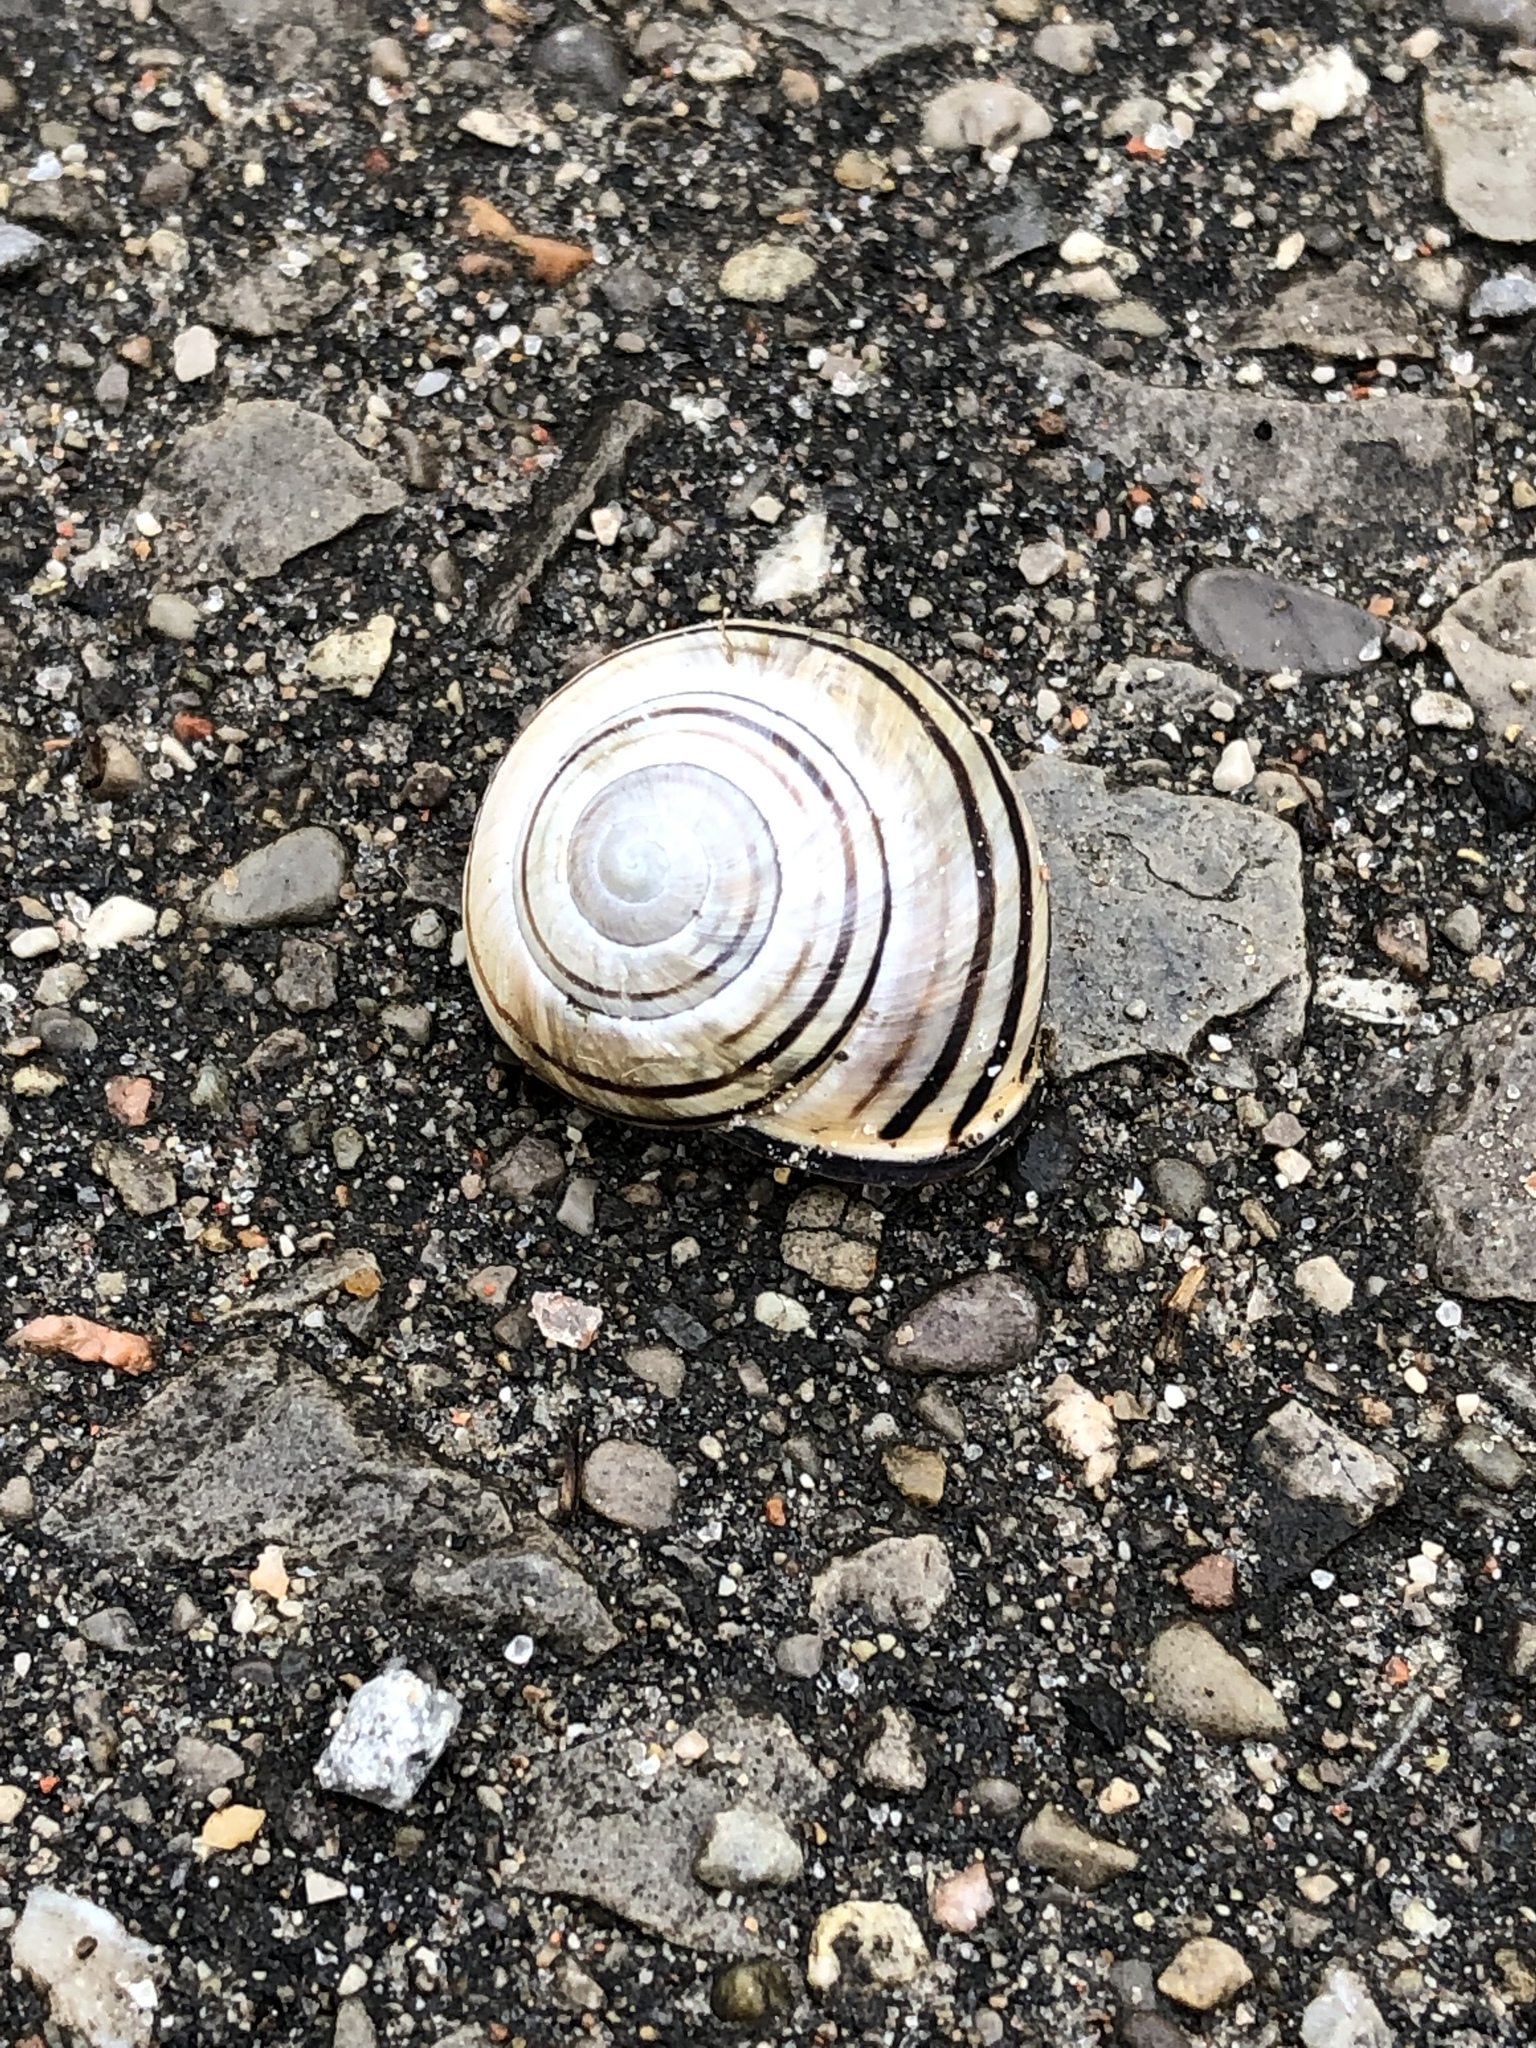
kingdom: Animalia
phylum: Mollusca
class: Gastropoda
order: Stylommatophora
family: Helicidae
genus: Cepaea
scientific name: Cepaea nemoralis
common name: Grovesnail
